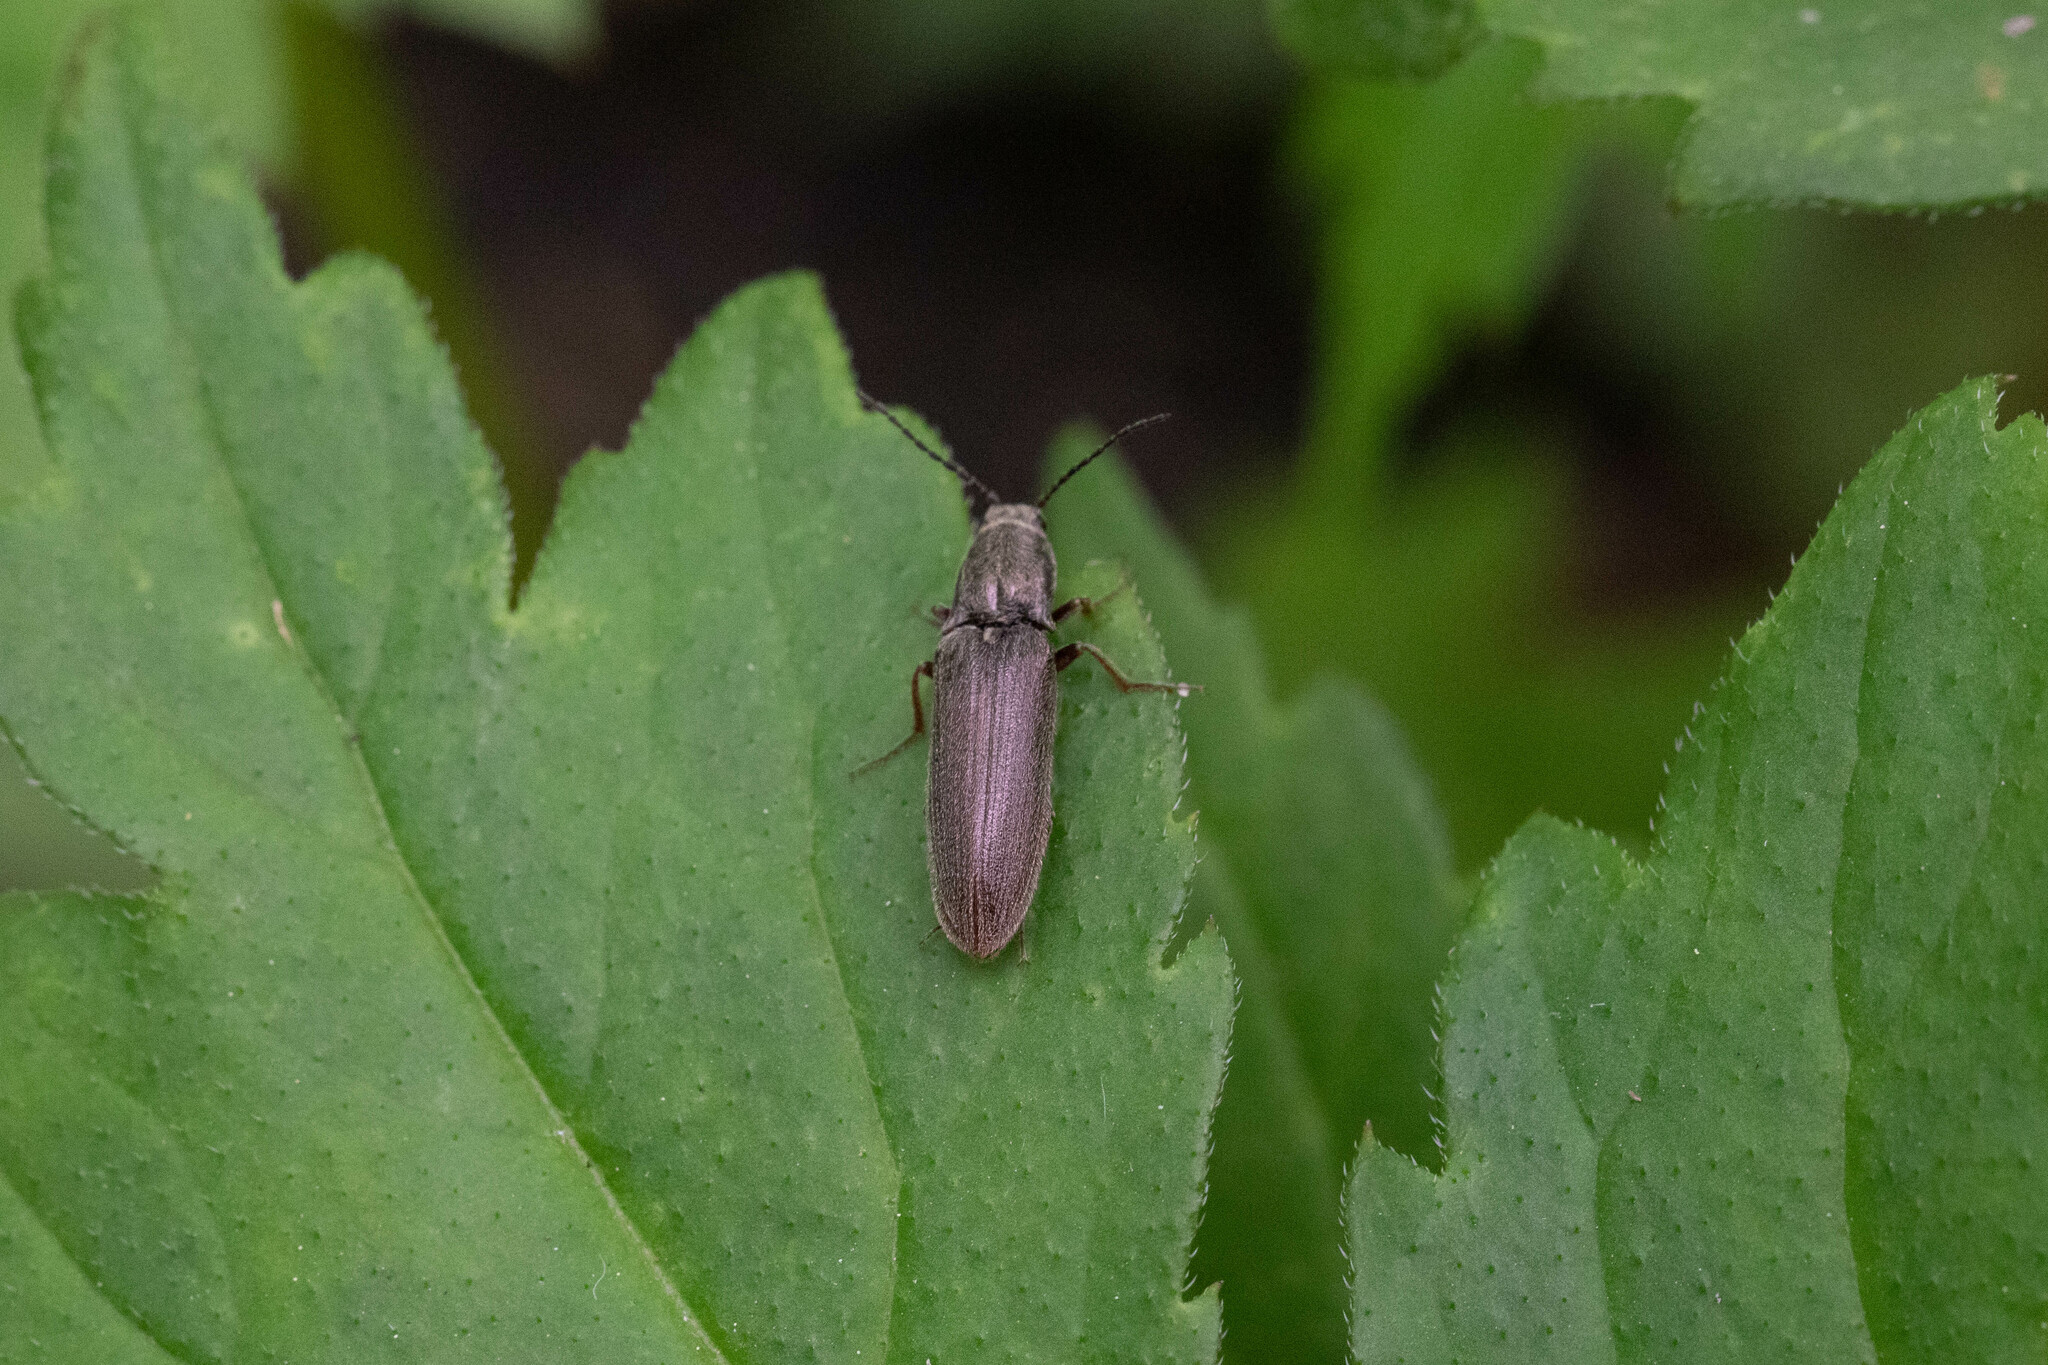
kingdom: Animalia
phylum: Arthropoda
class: Insecta
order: Coleoptera
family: Elateridae
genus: Sylvanelater
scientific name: Sylvanelater cylindriformis
